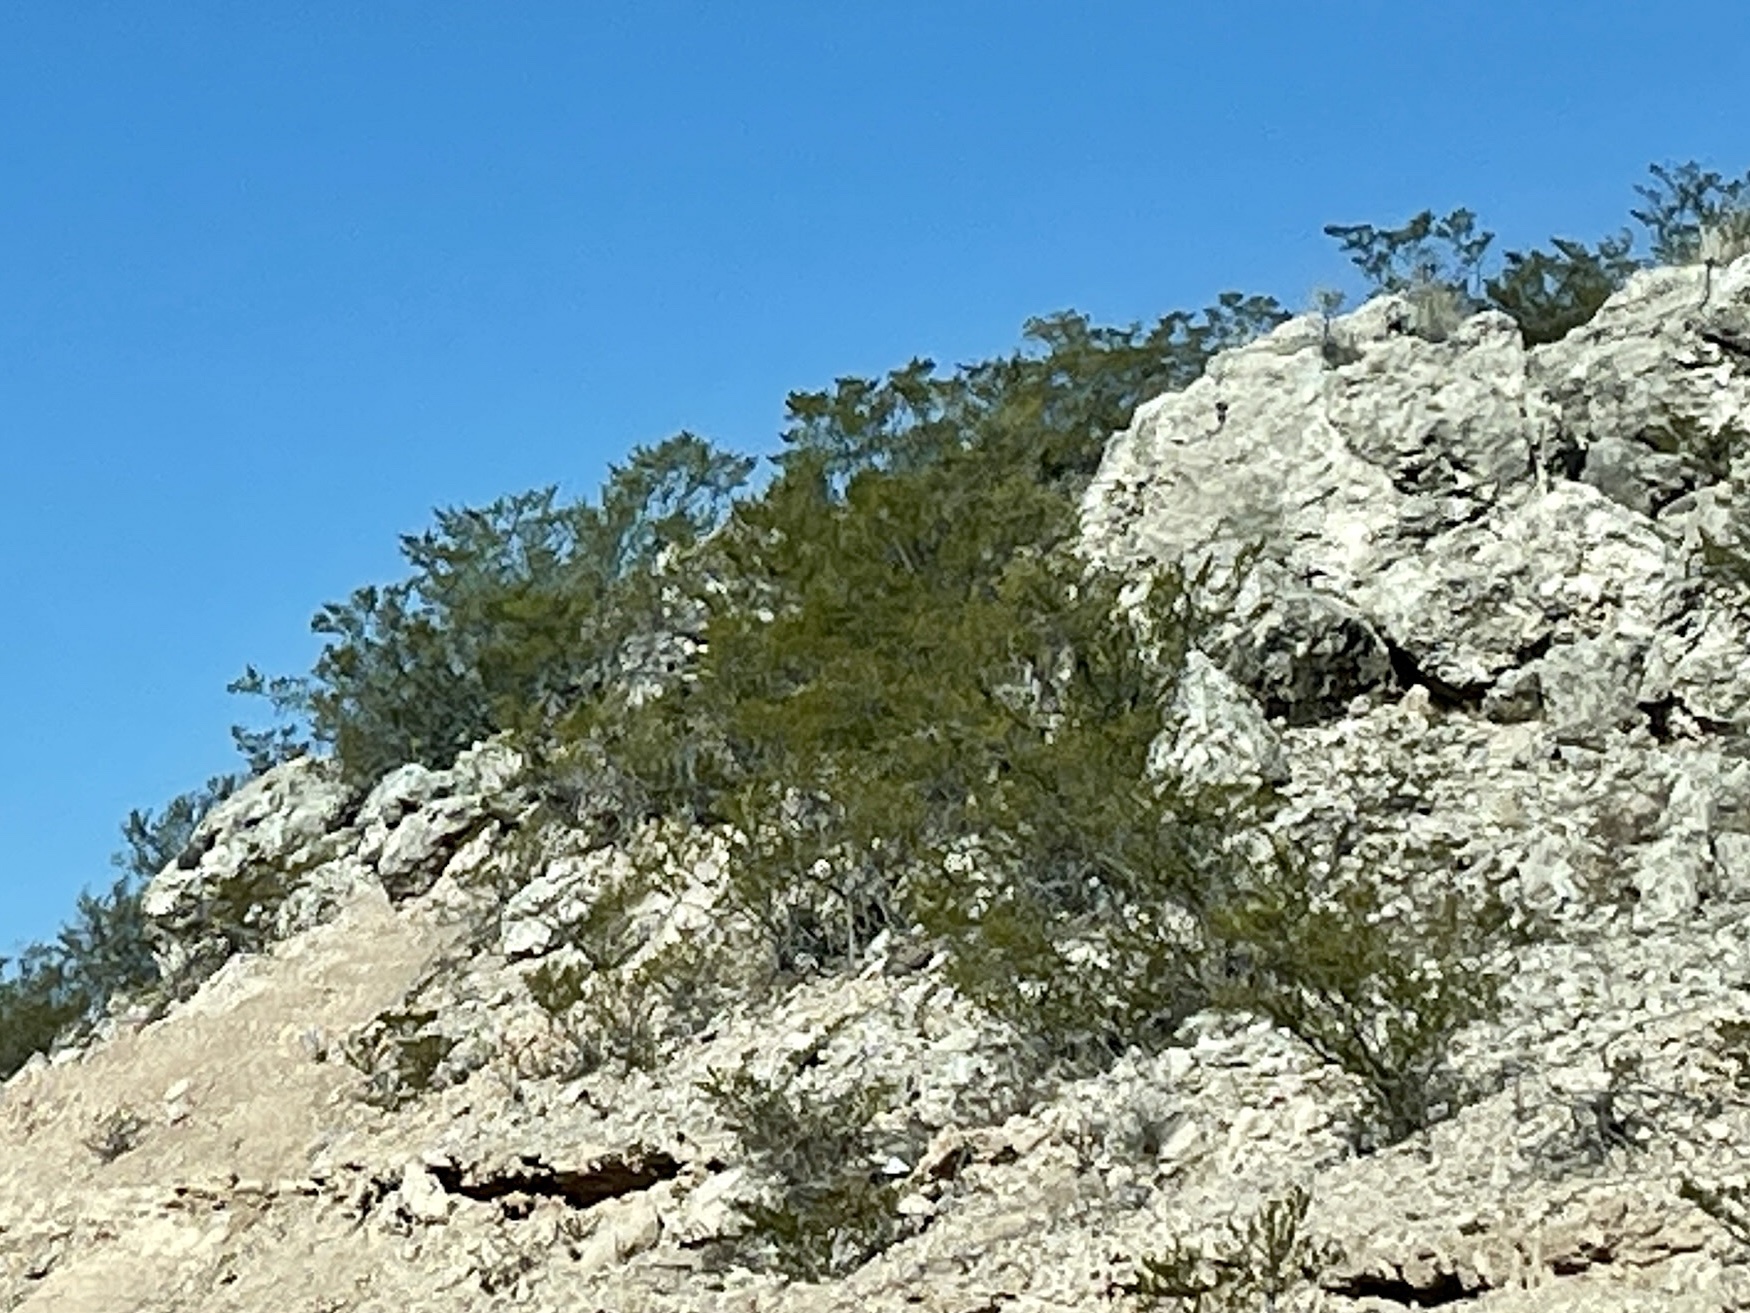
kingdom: Plantae
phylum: Tracheophyta
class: Magnoliopsida
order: Zygophyllales
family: Zygophyllaceae
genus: Larrea
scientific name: Larrea tridentata
